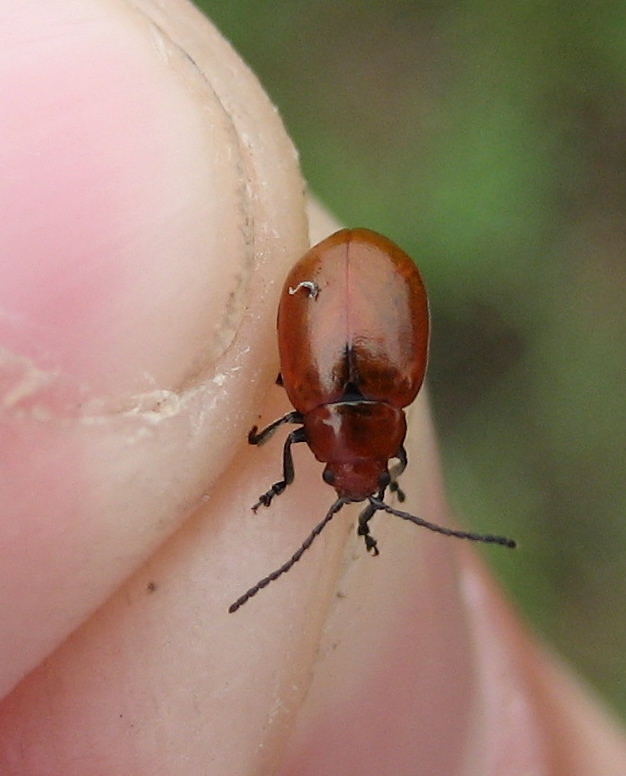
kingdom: Animalia
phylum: Arthropoda
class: Insecta
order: Coleoptera
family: Chrysomelidae
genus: Strabala
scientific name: Strabala rufa
